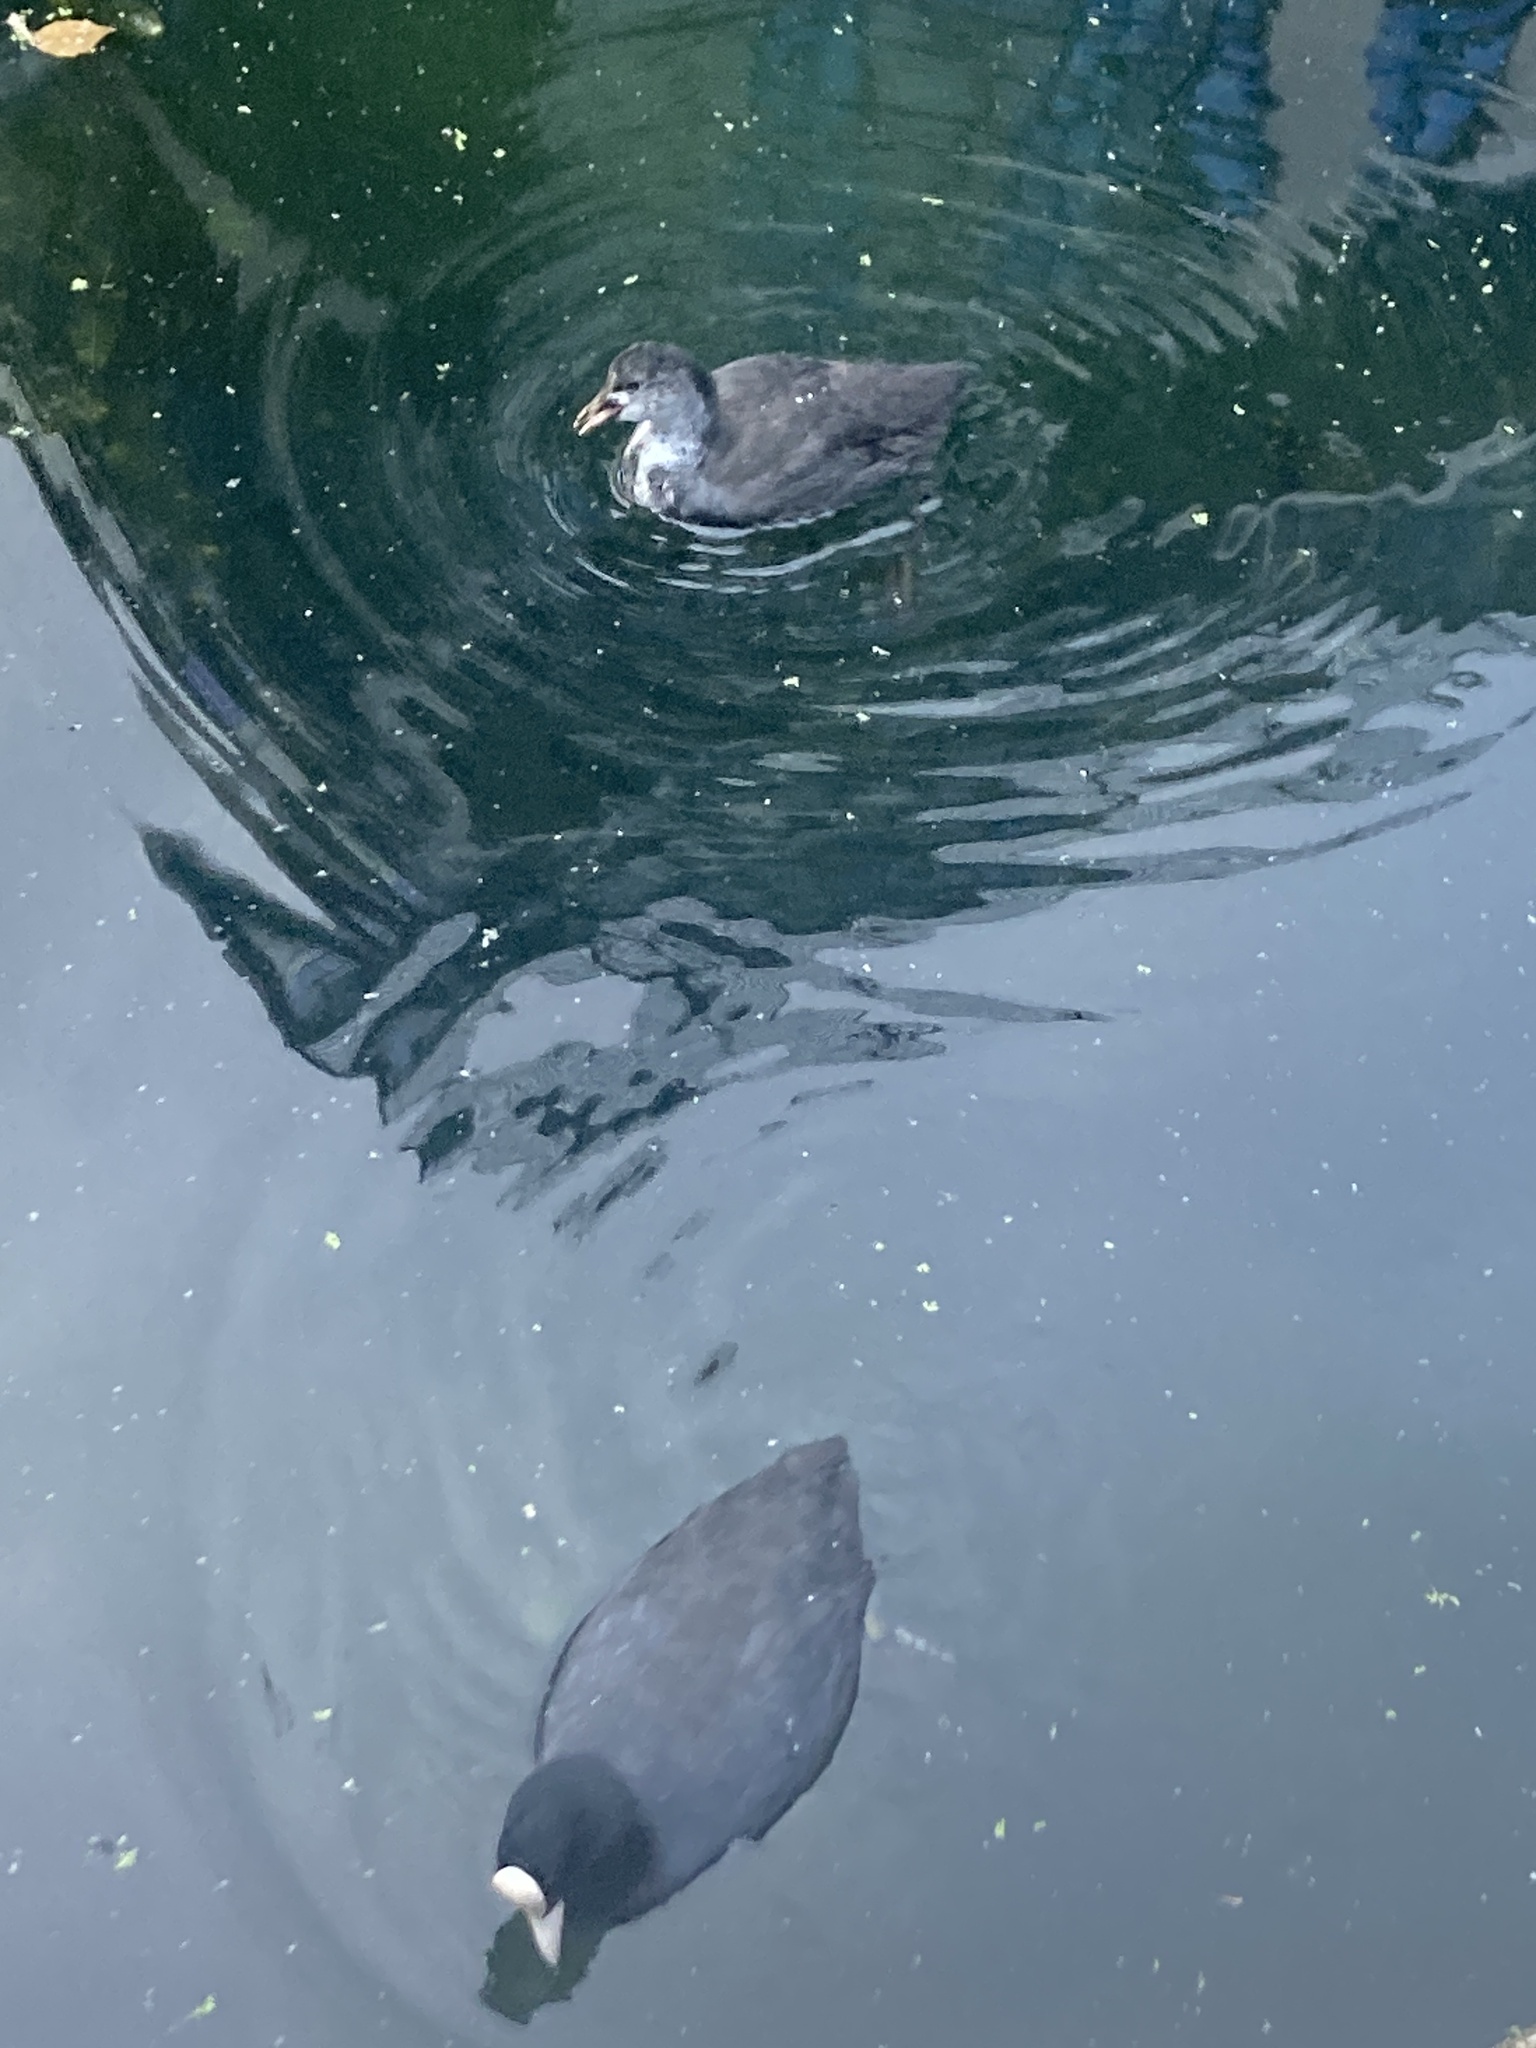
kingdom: Animalia
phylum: Chordata
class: Aves
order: Gruiformes
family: Rallidae
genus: Fulica
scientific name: Fulica atra
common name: Eurasian coot
